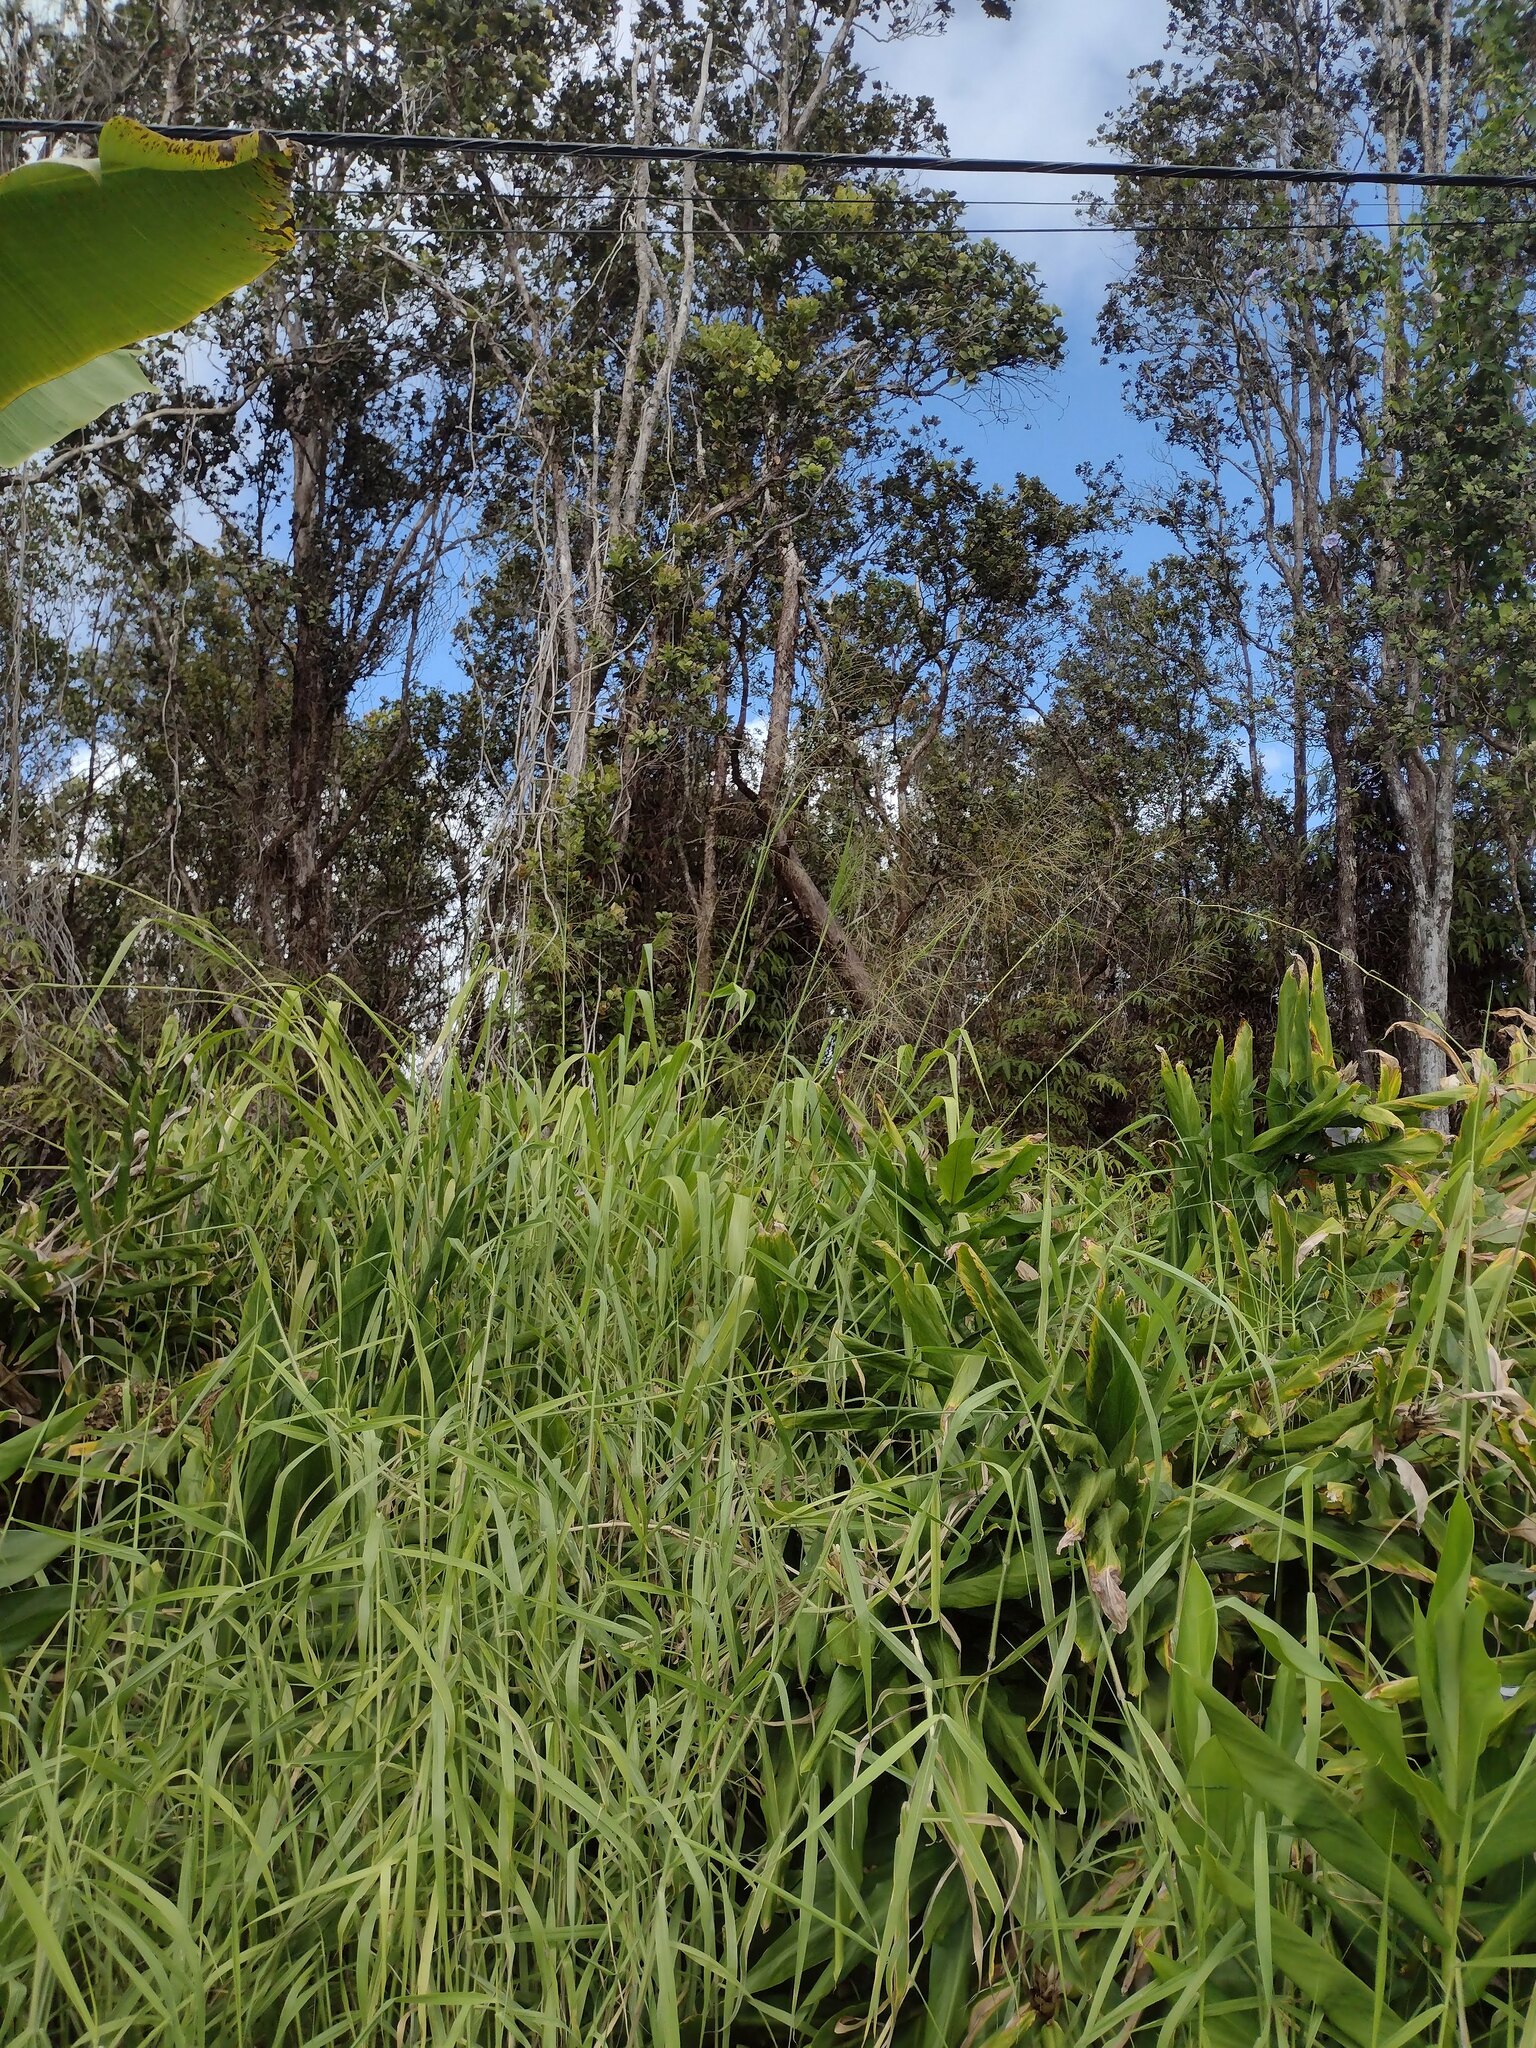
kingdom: Plantae
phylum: Tracheophyta
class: Liliopsida
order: Poales
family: Poaceae
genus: Megathyrsus
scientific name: Megathyrsus maximus
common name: Guineagrass
